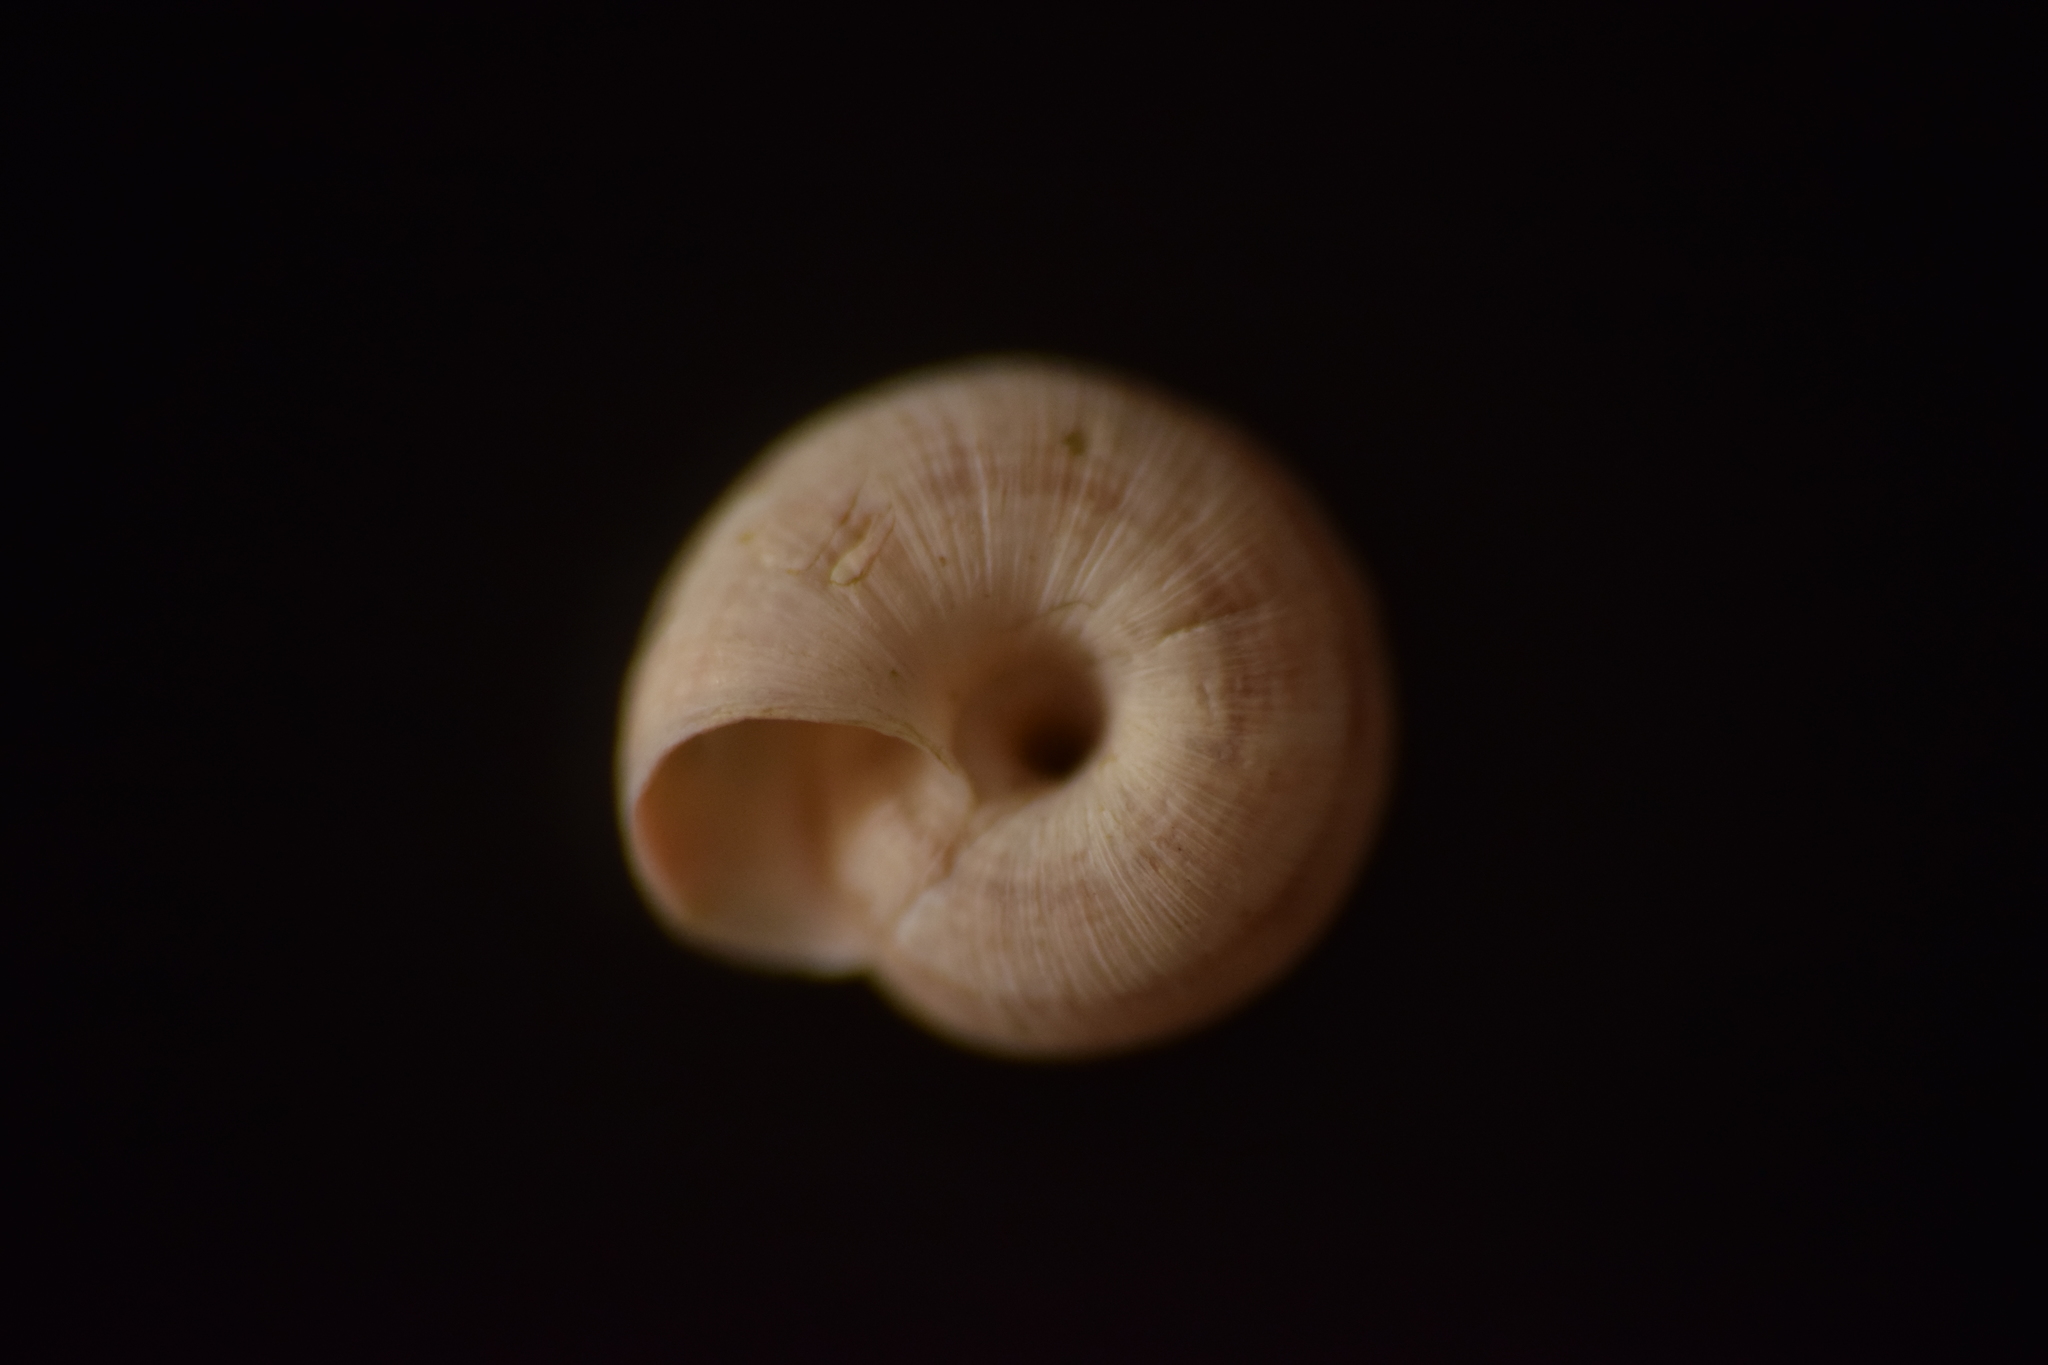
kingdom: Animalia
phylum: Mollusca
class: Gastropoda
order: Stylommatophora
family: Geomitridae
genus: Backeljaia
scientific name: Backeljaia gigaxii
